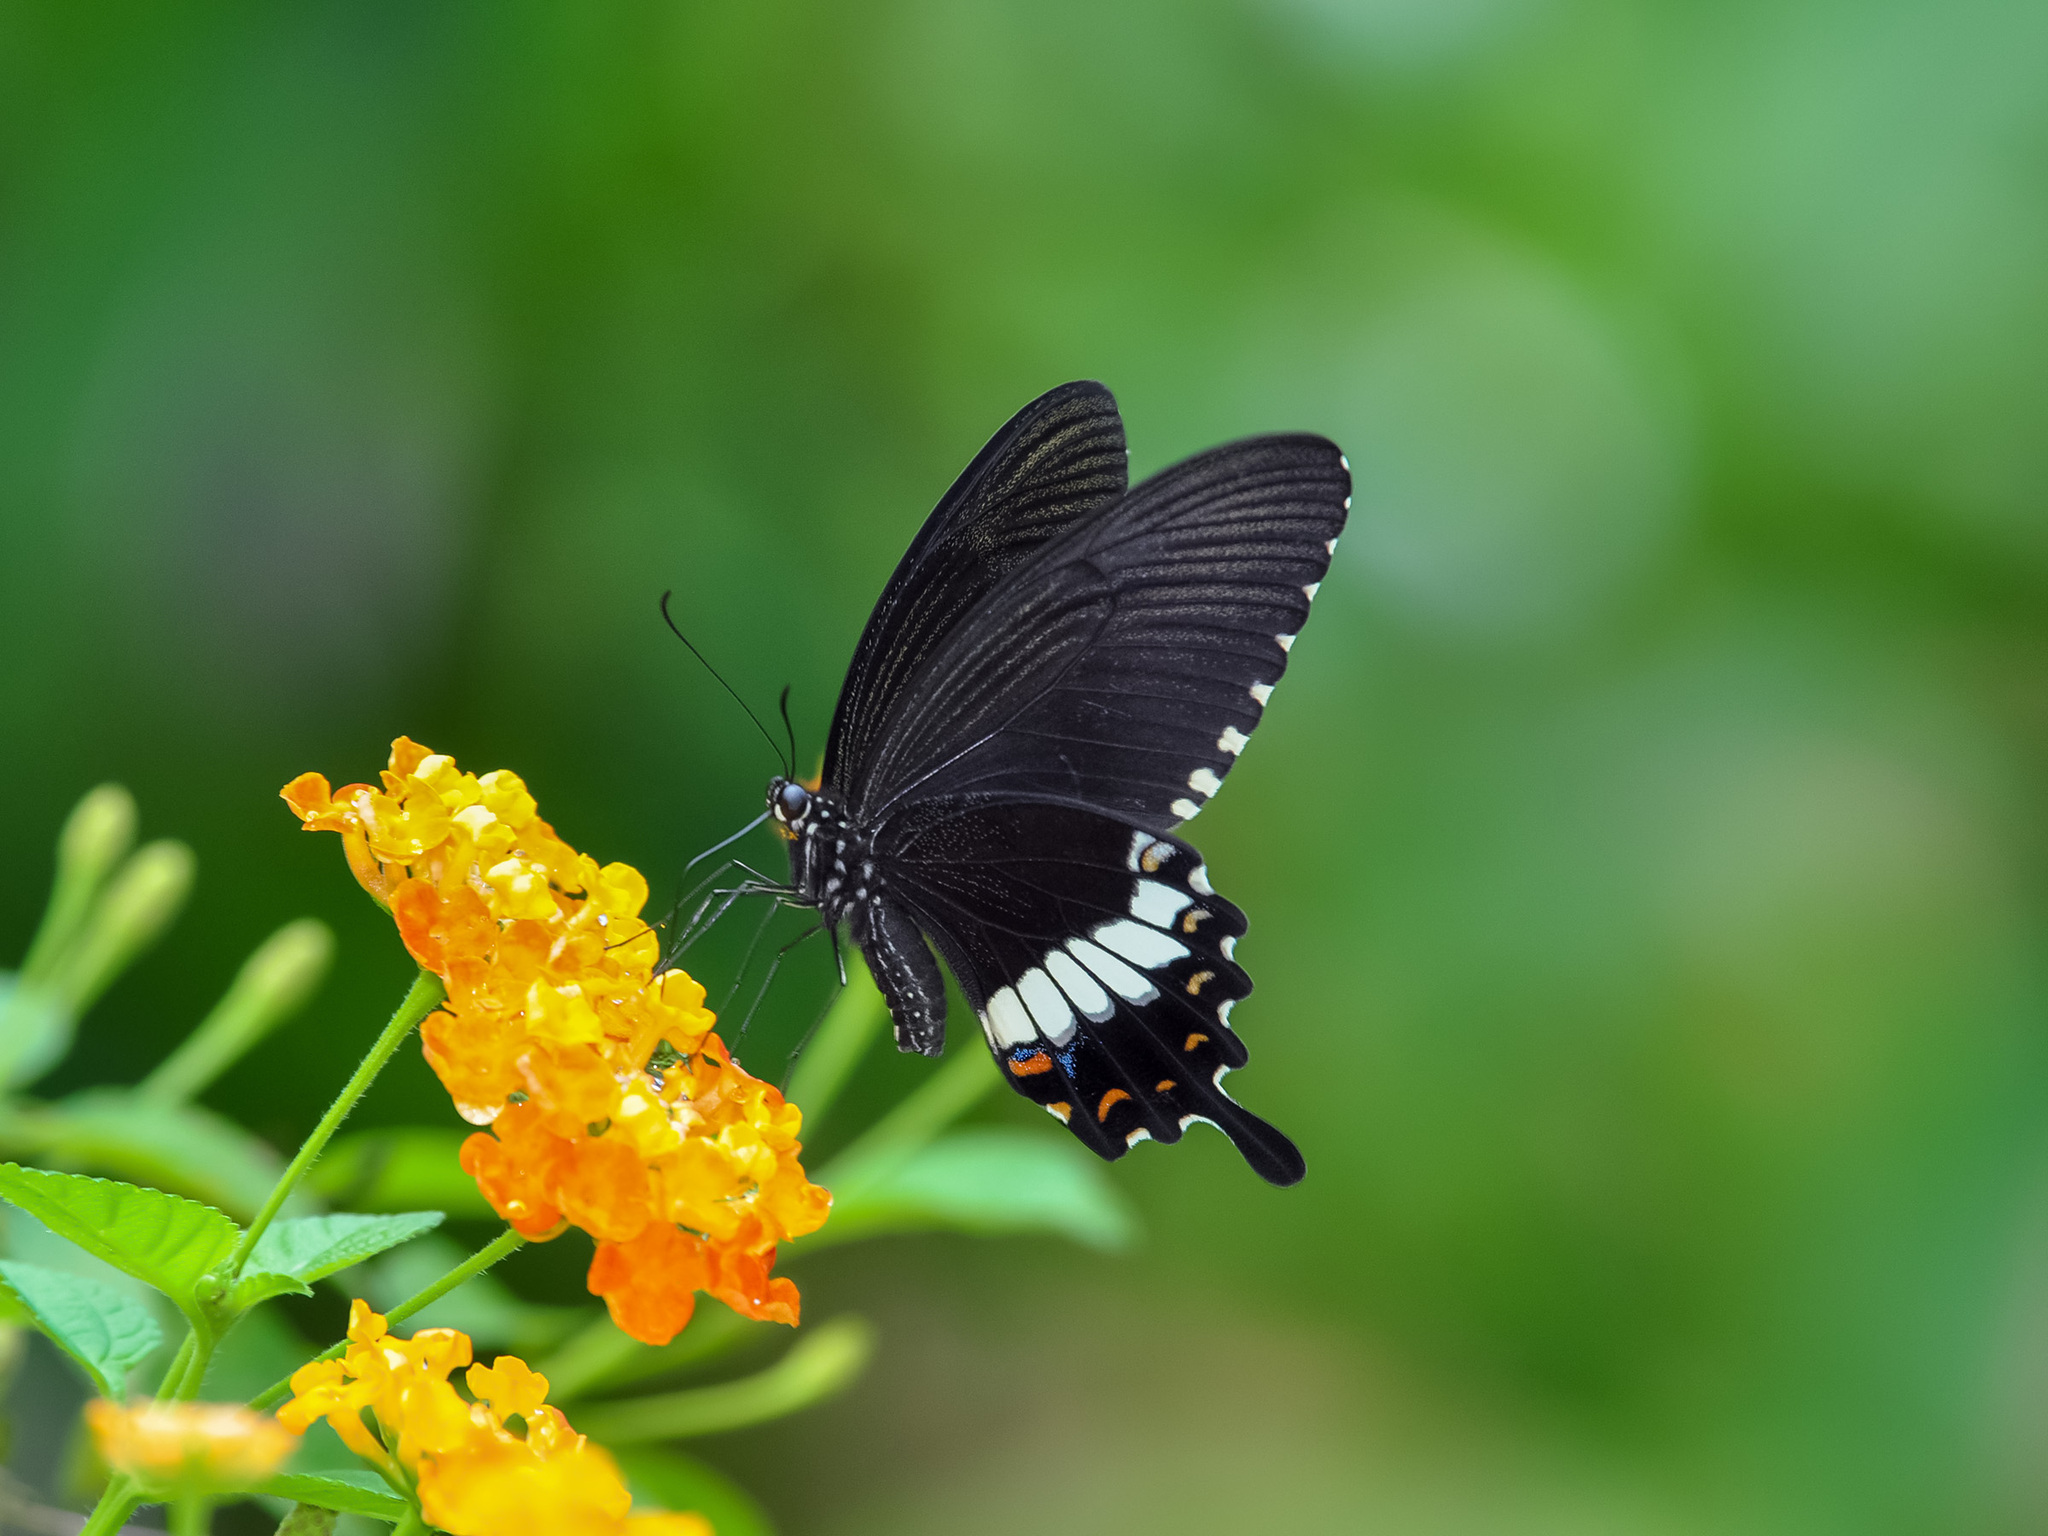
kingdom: Animalia
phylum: Arthropoda
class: Insecta
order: Lepidoptera
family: Papilionidae
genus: Papilio
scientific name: Papilio polytes
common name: Common mormon
